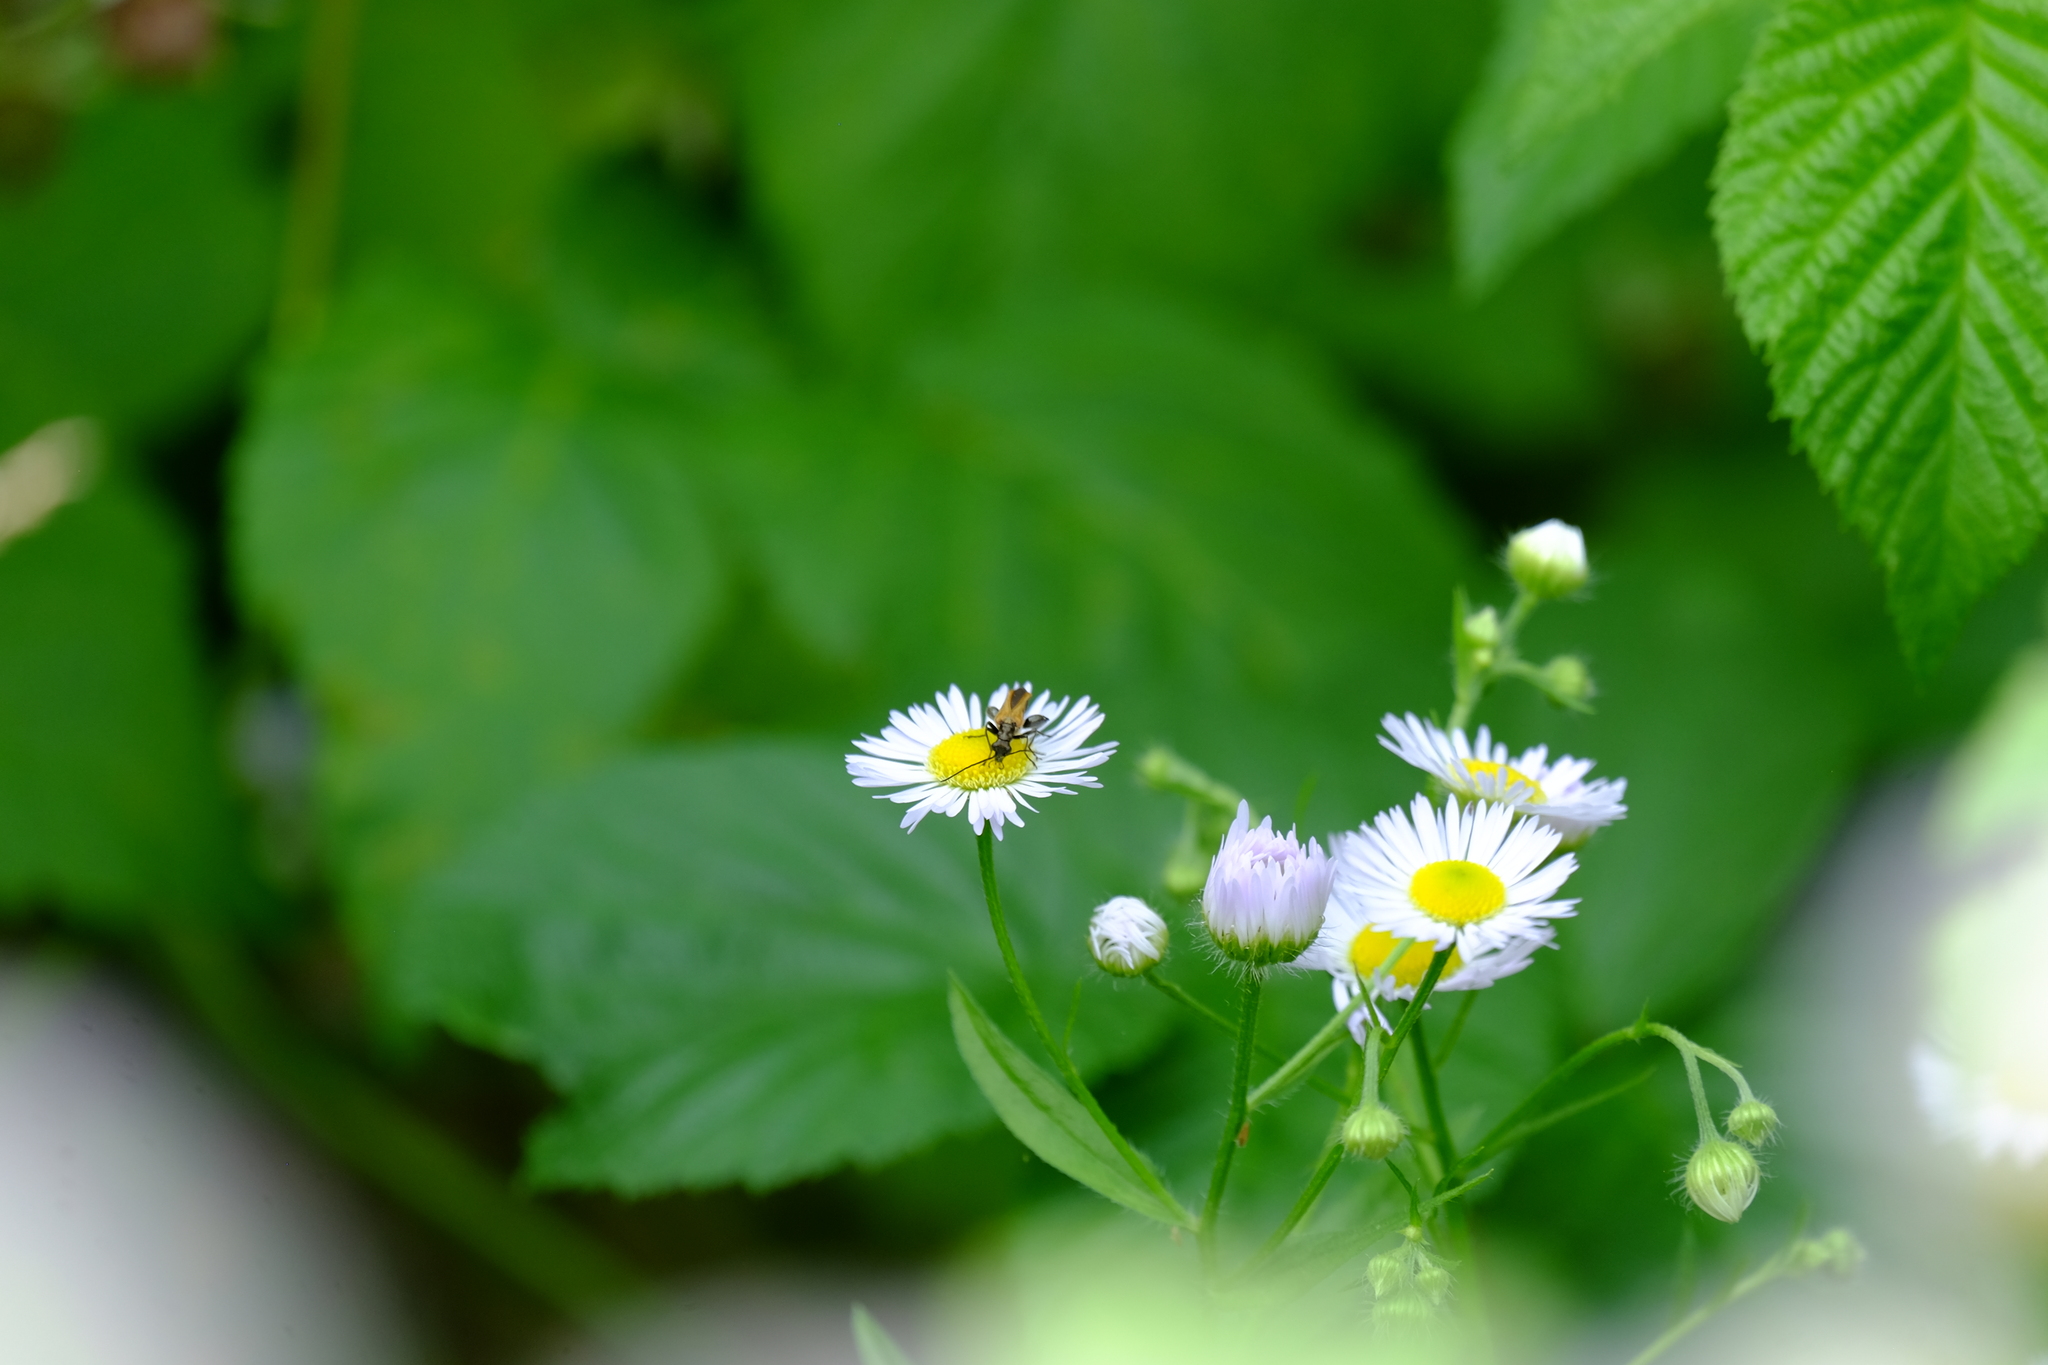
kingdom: Animalia
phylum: Arthropoda
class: Insecta
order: Coleoptera
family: Oedemeridae
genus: Oedemera
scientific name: Oedemera femorata
